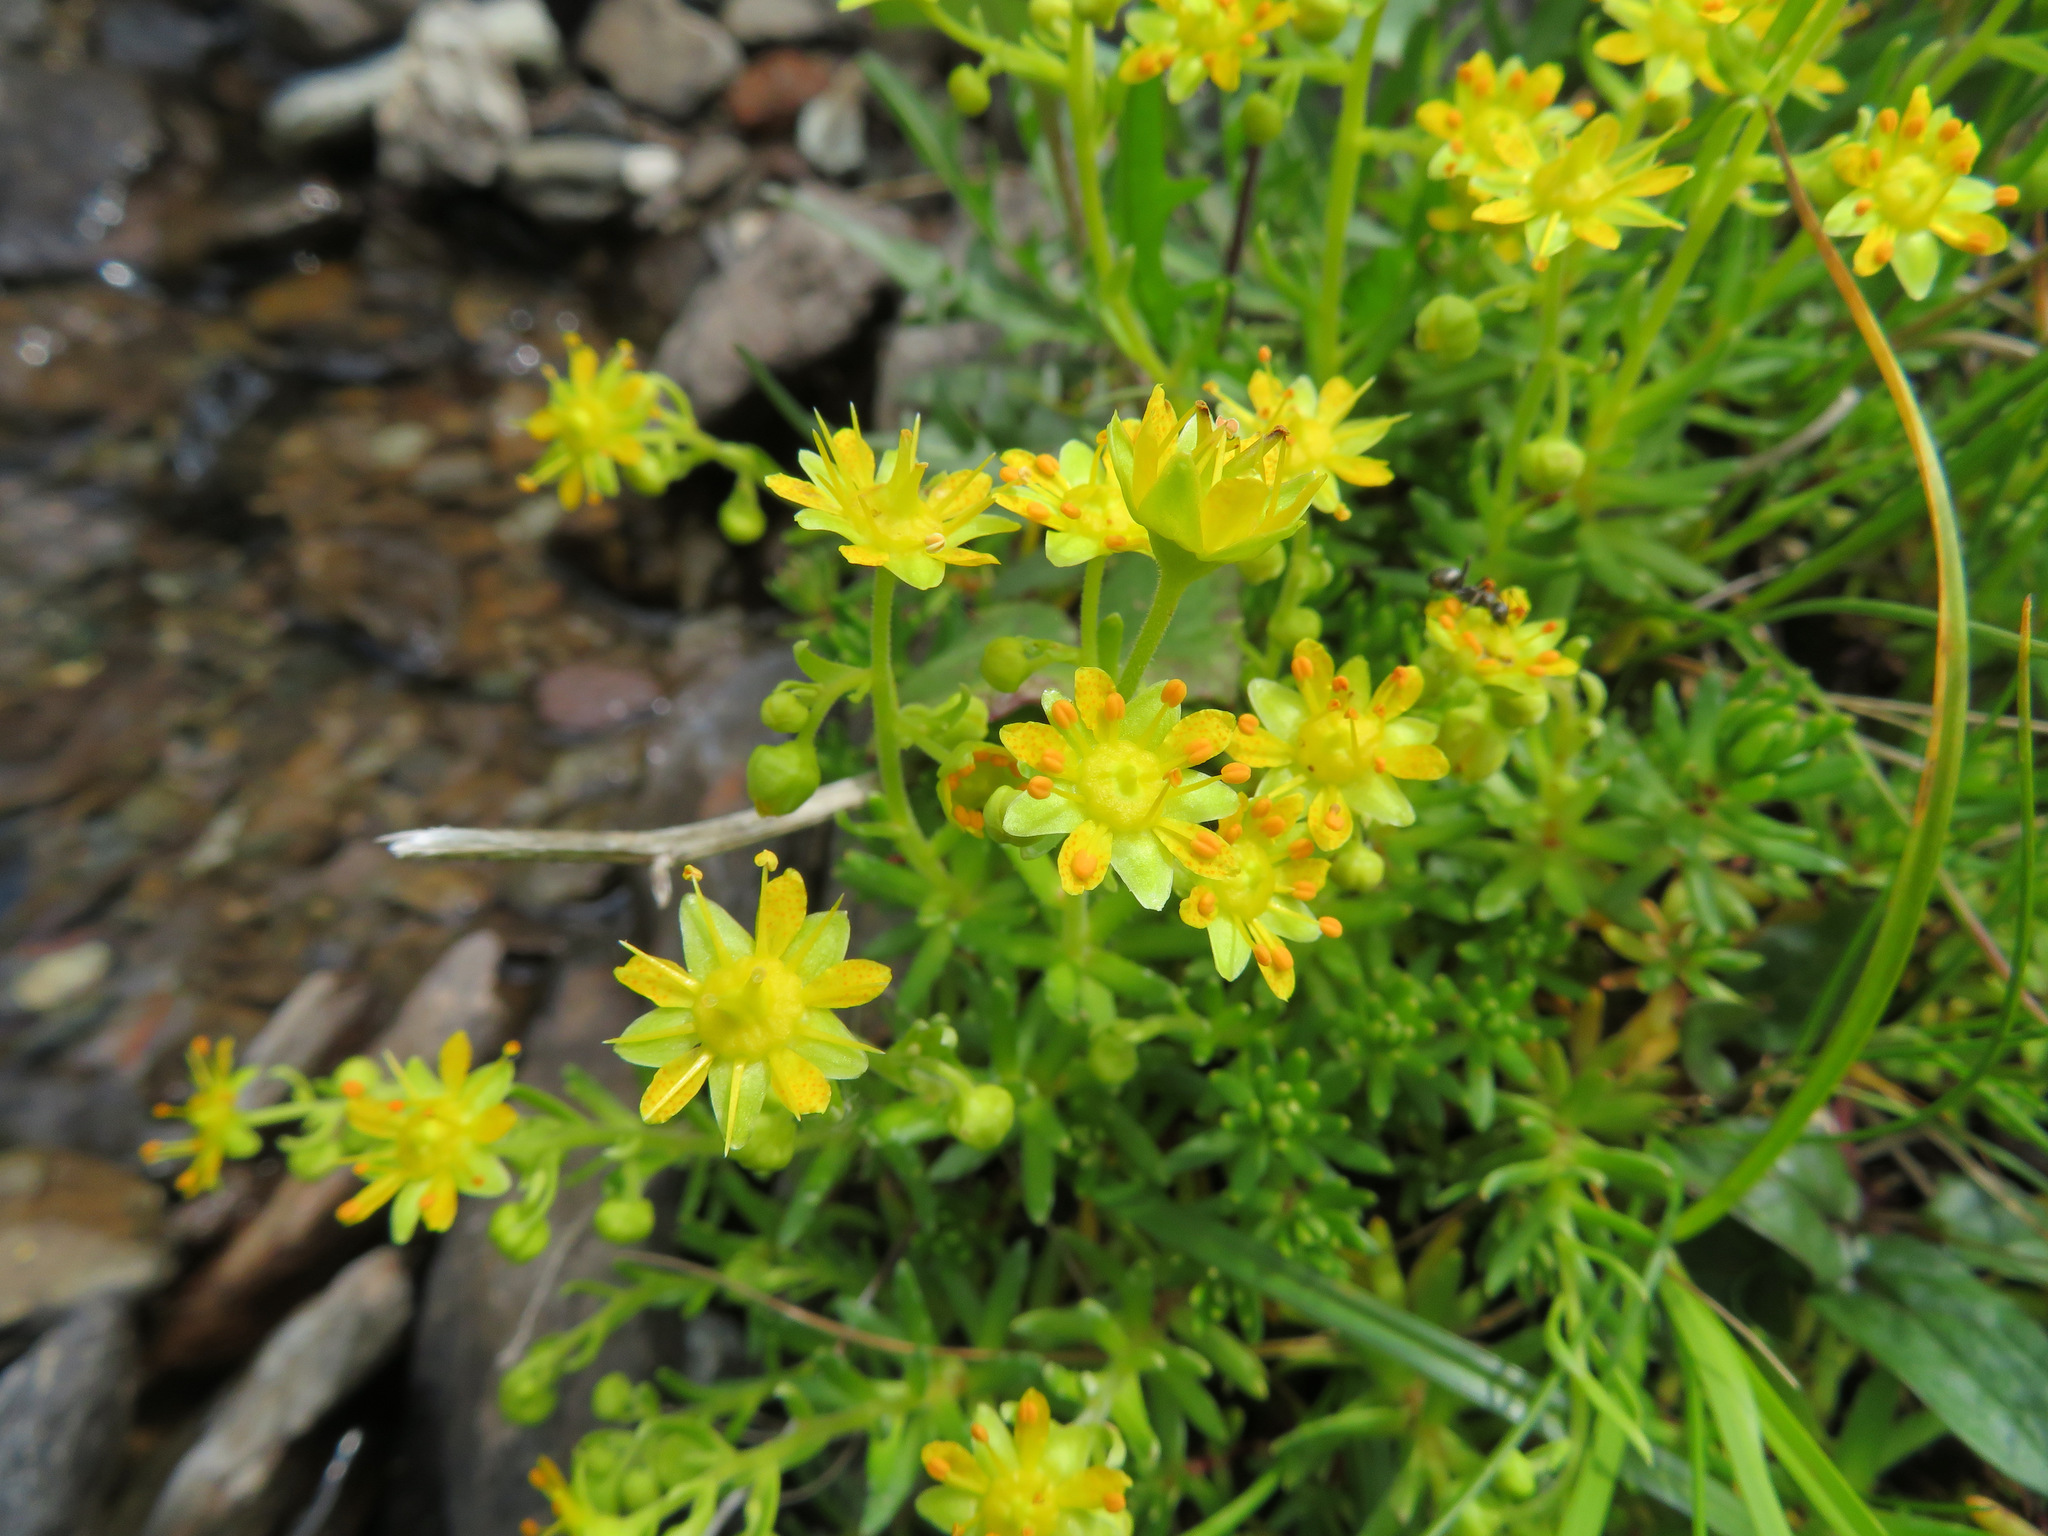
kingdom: Plantae
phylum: Tracheophyta
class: Magnoliopsida
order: Saxifragales
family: Saxifragaceae
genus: Saxifraga
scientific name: Saxifraga aizoides
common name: Yellow mountain saxifrage
